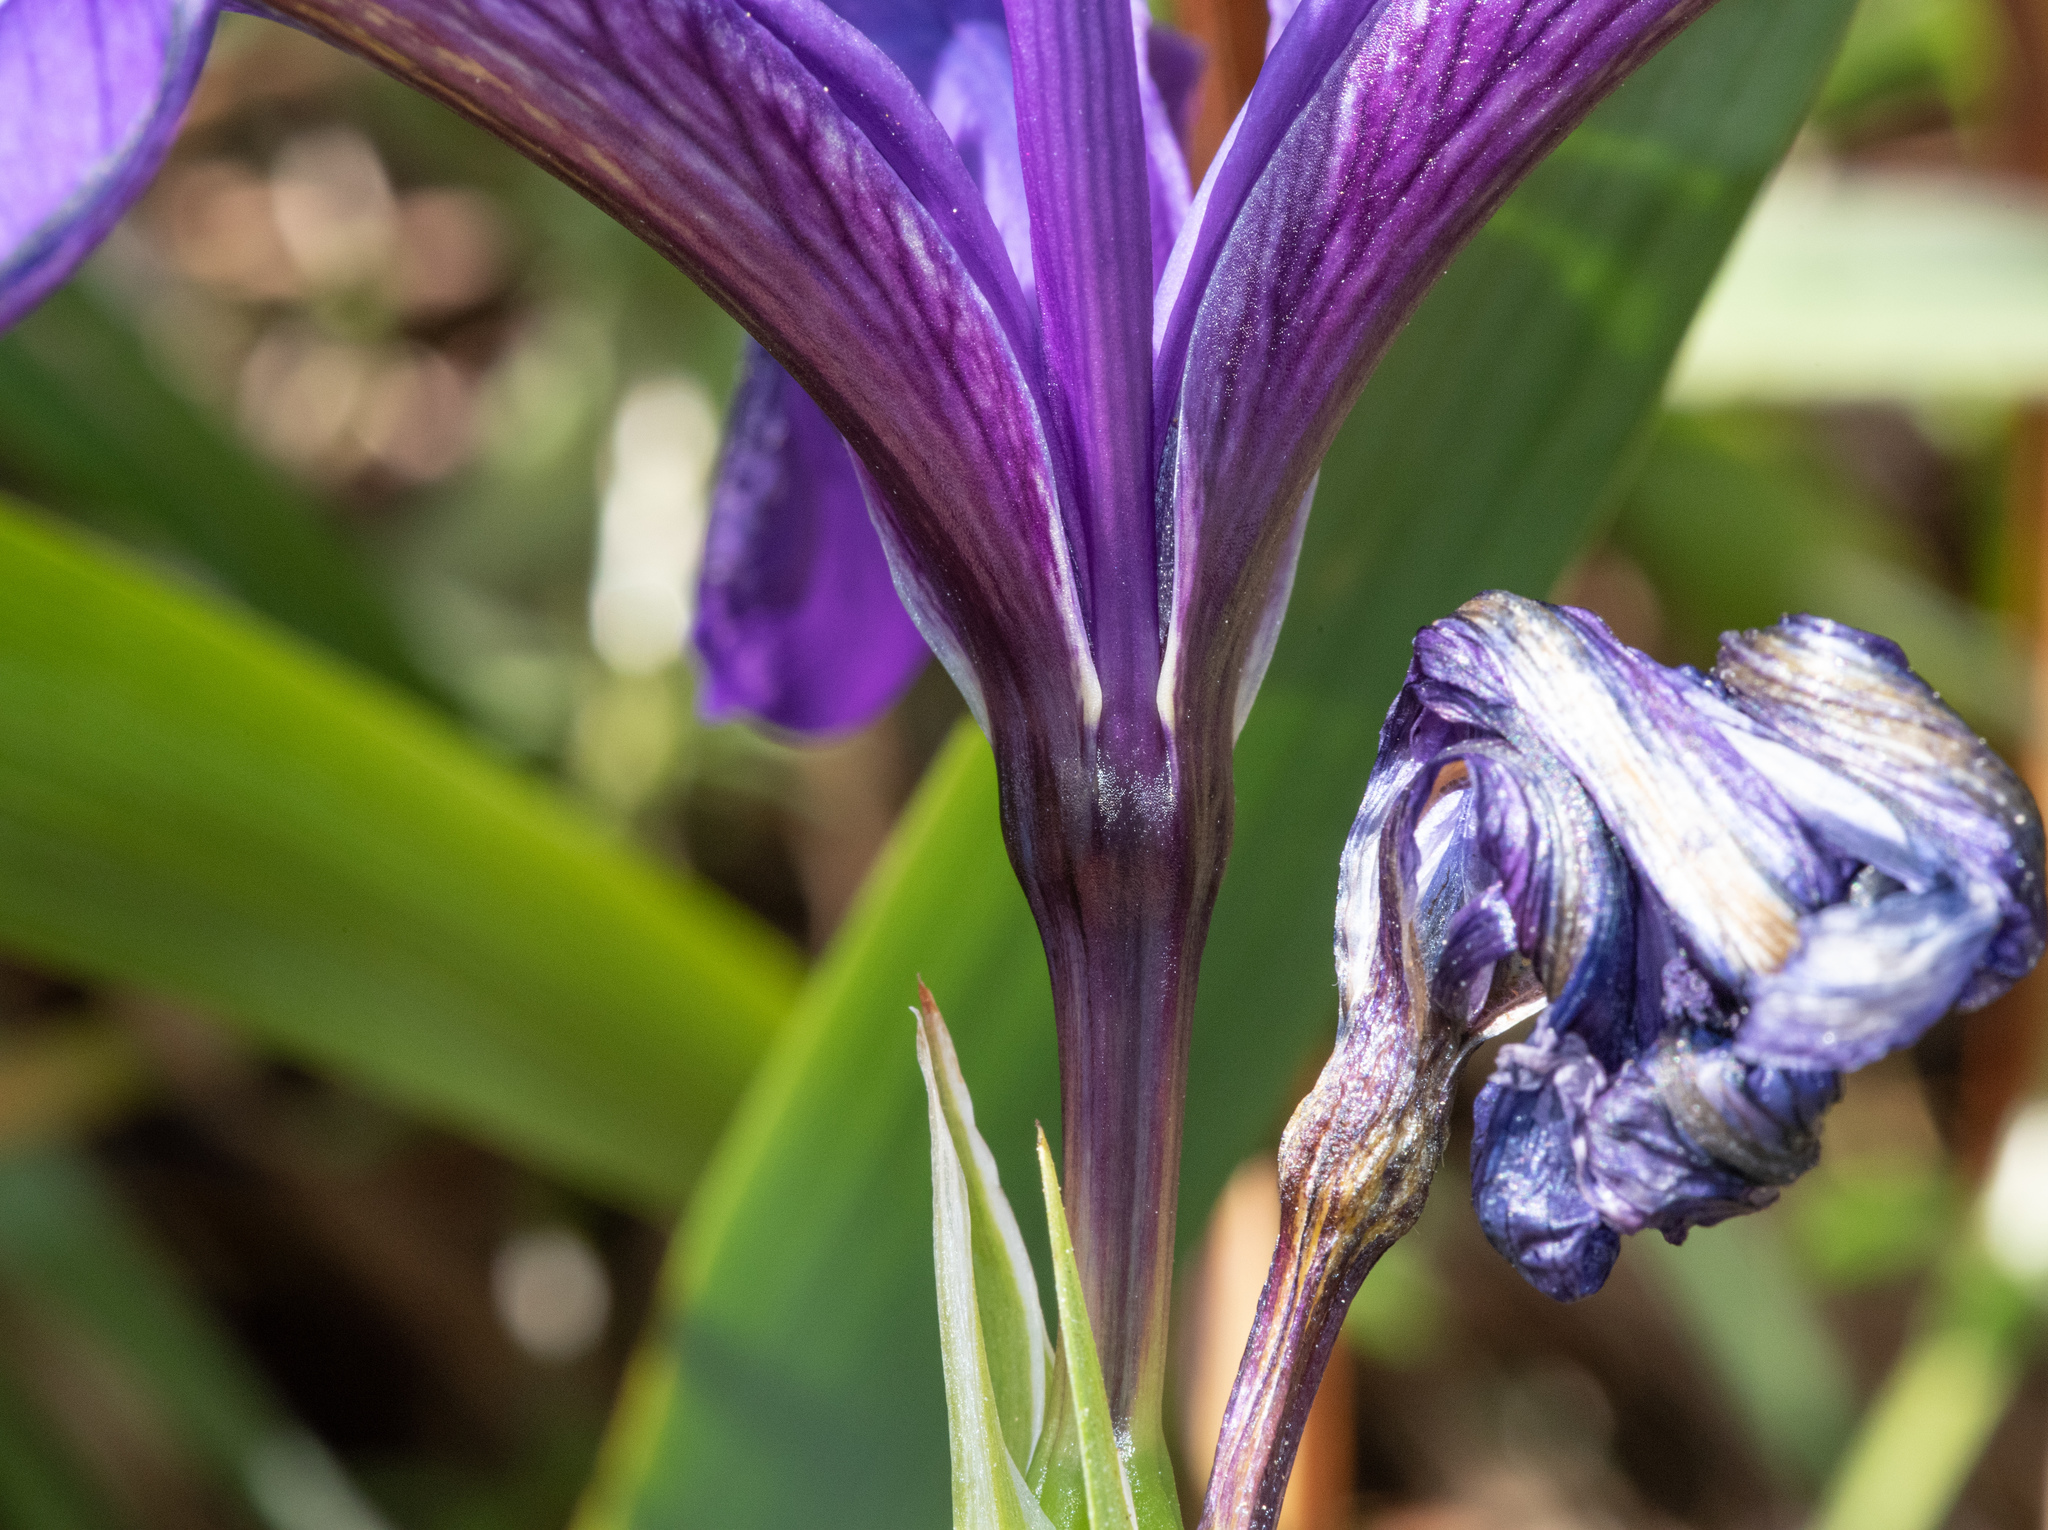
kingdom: Plantae
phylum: Tracheophyta
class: Liliopsida
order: Asparagales
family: Iridaceae
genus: Iris
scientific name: Iris douglasiana
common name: Marin iris
